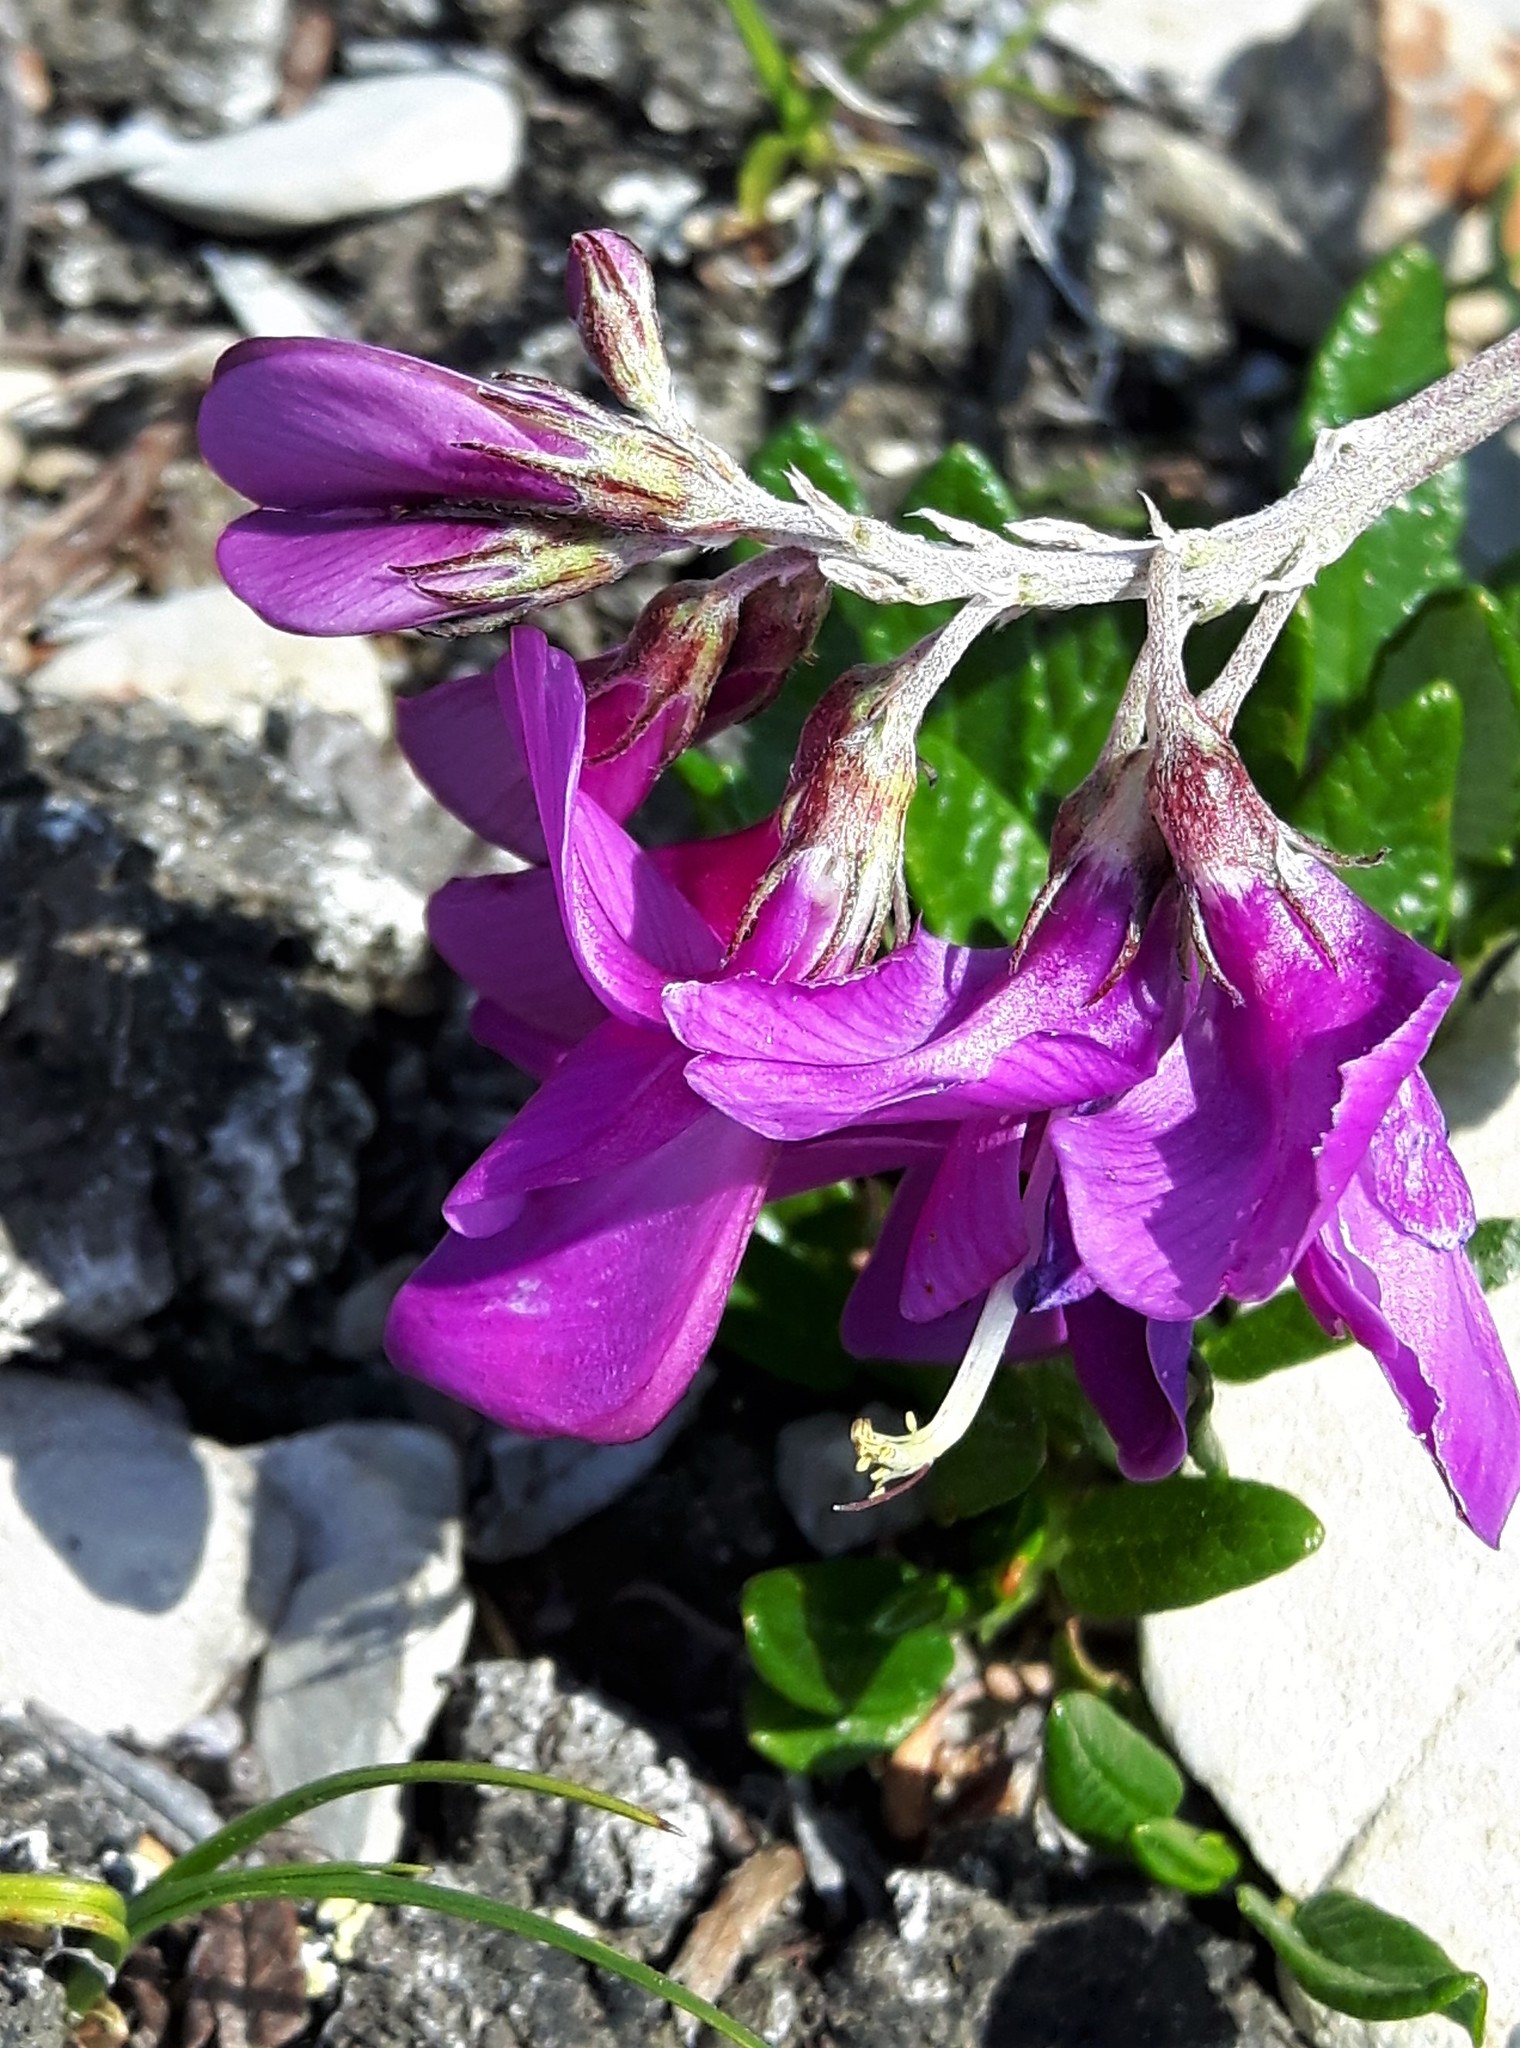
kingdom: Plantae
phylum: Tracheophyta
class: Magnoliopsida
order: Fabales
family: Fabaceae
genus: Hedysarum
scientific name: Hedysarum boreale
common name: Northern sweet-vetch
